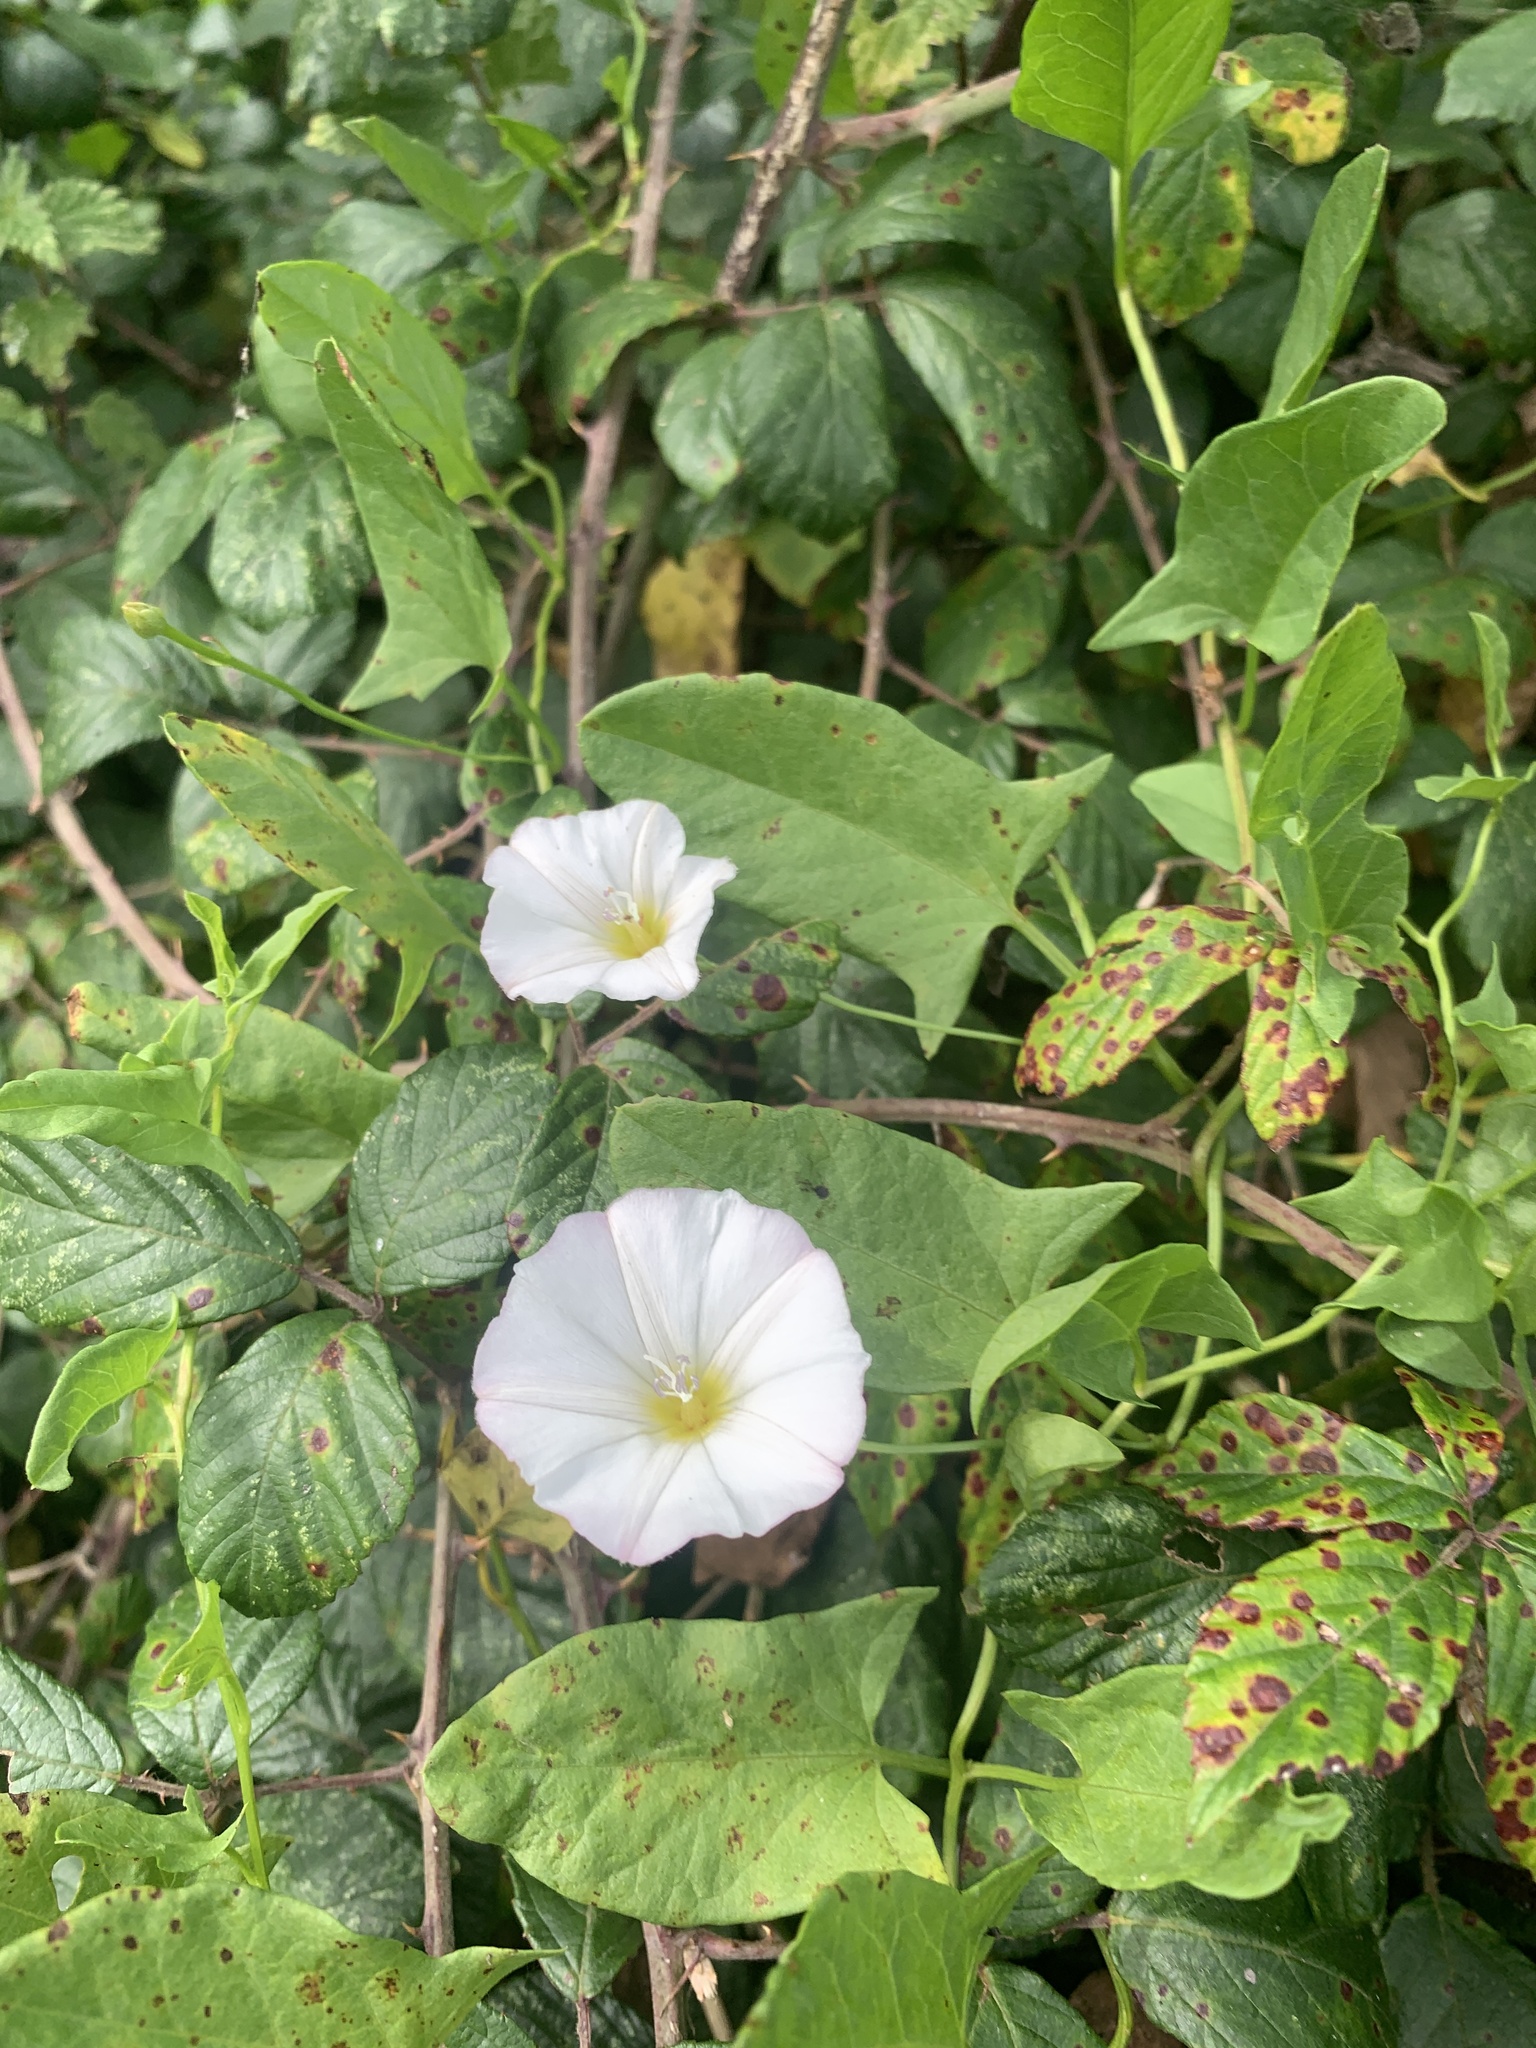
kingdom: Plantae
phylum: Tracheophyta
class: Magnoliopsida
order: Solanales
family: Convolvulaceae
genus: Convolvulus
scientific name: Convolvulus arvensis
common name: Field bindweed
